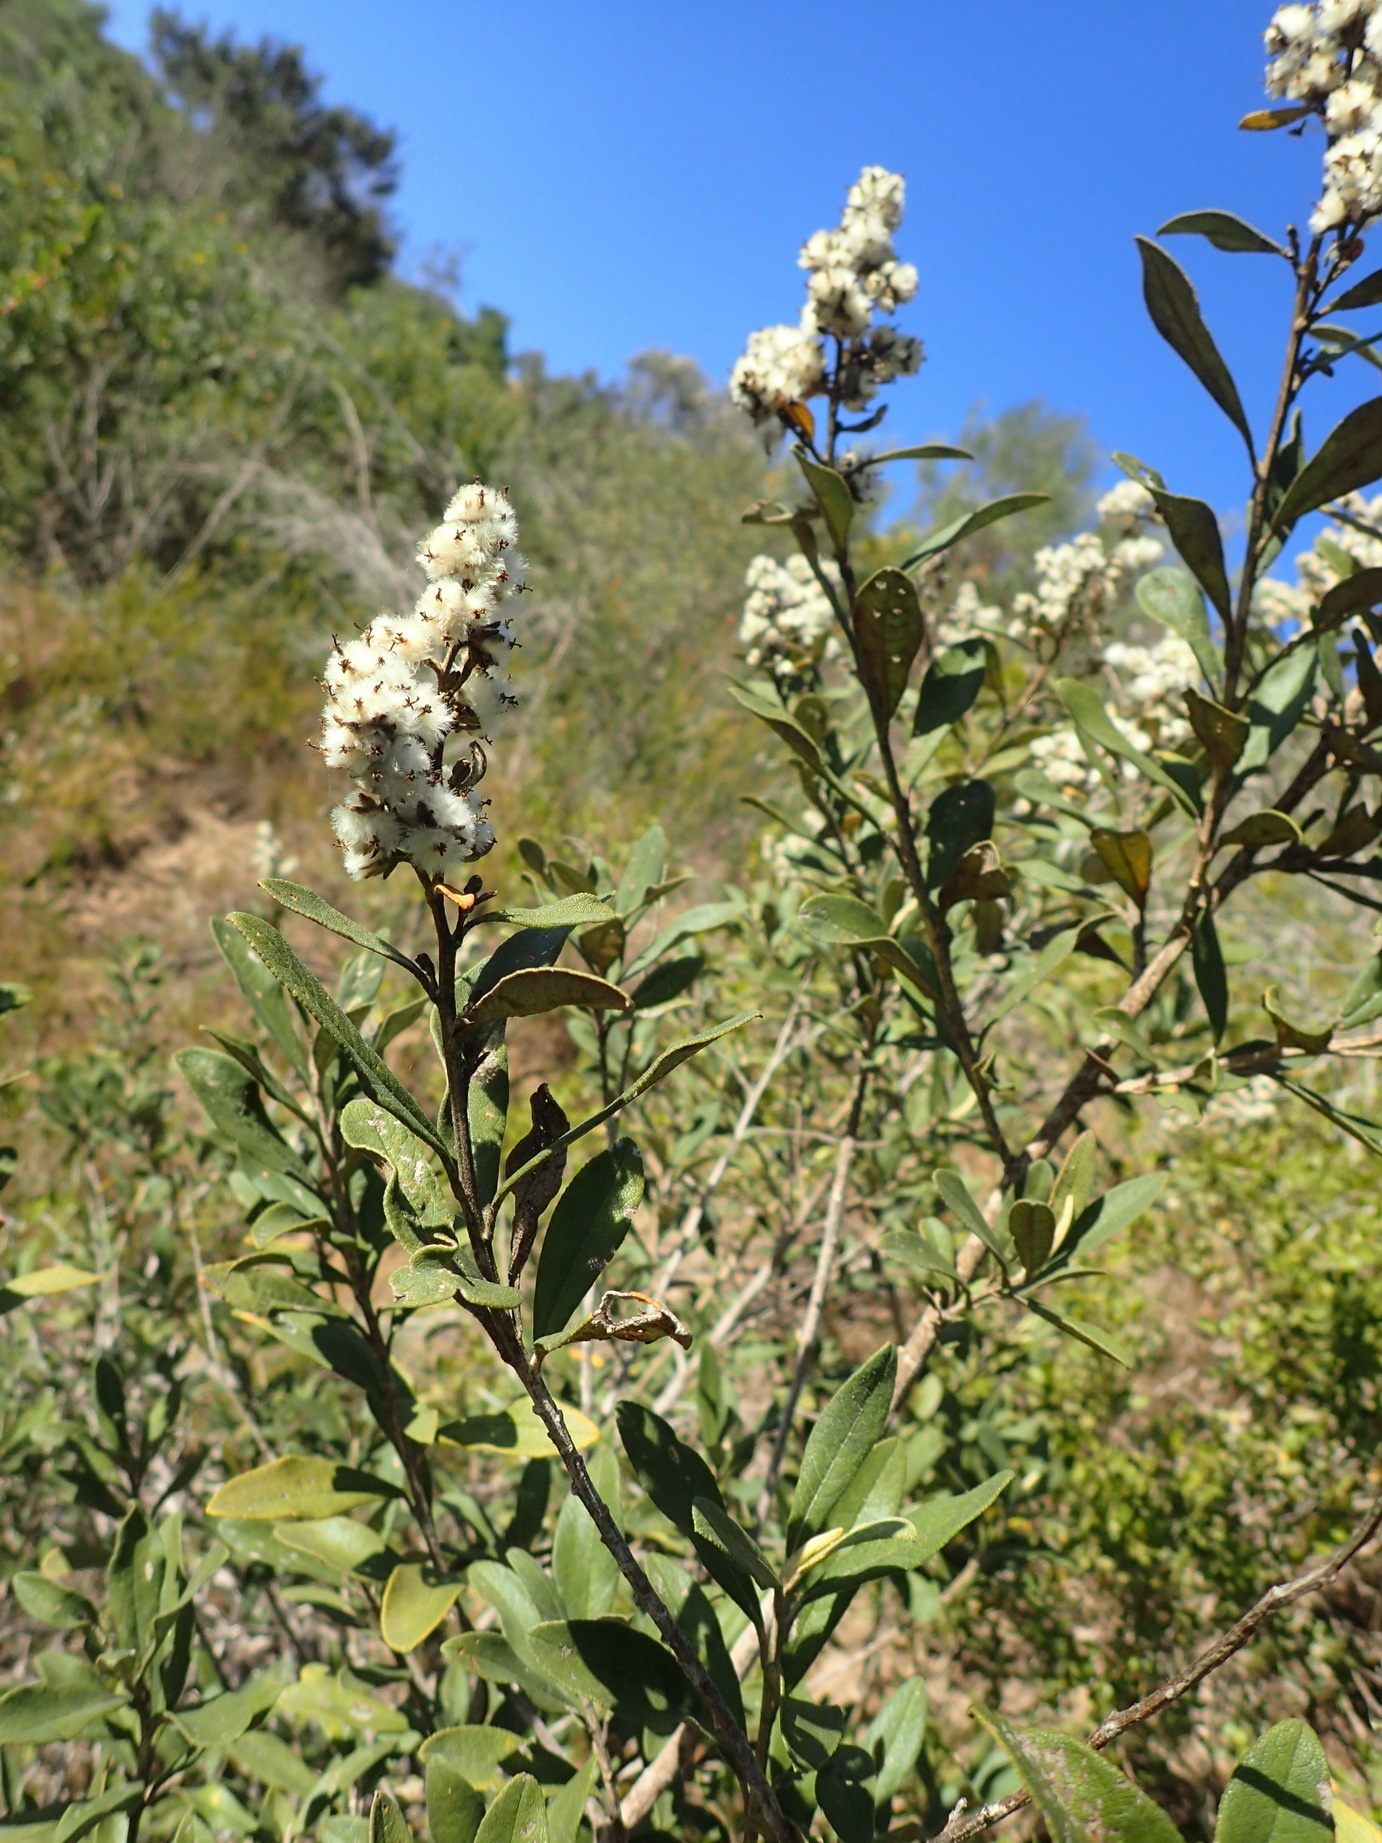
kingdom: Plantae
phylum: Tracheophyta
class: Magnoliopsida
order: Asterales
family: Asteraceae
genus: Tarchonanthus
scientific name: Tarchonanthus littoralis
